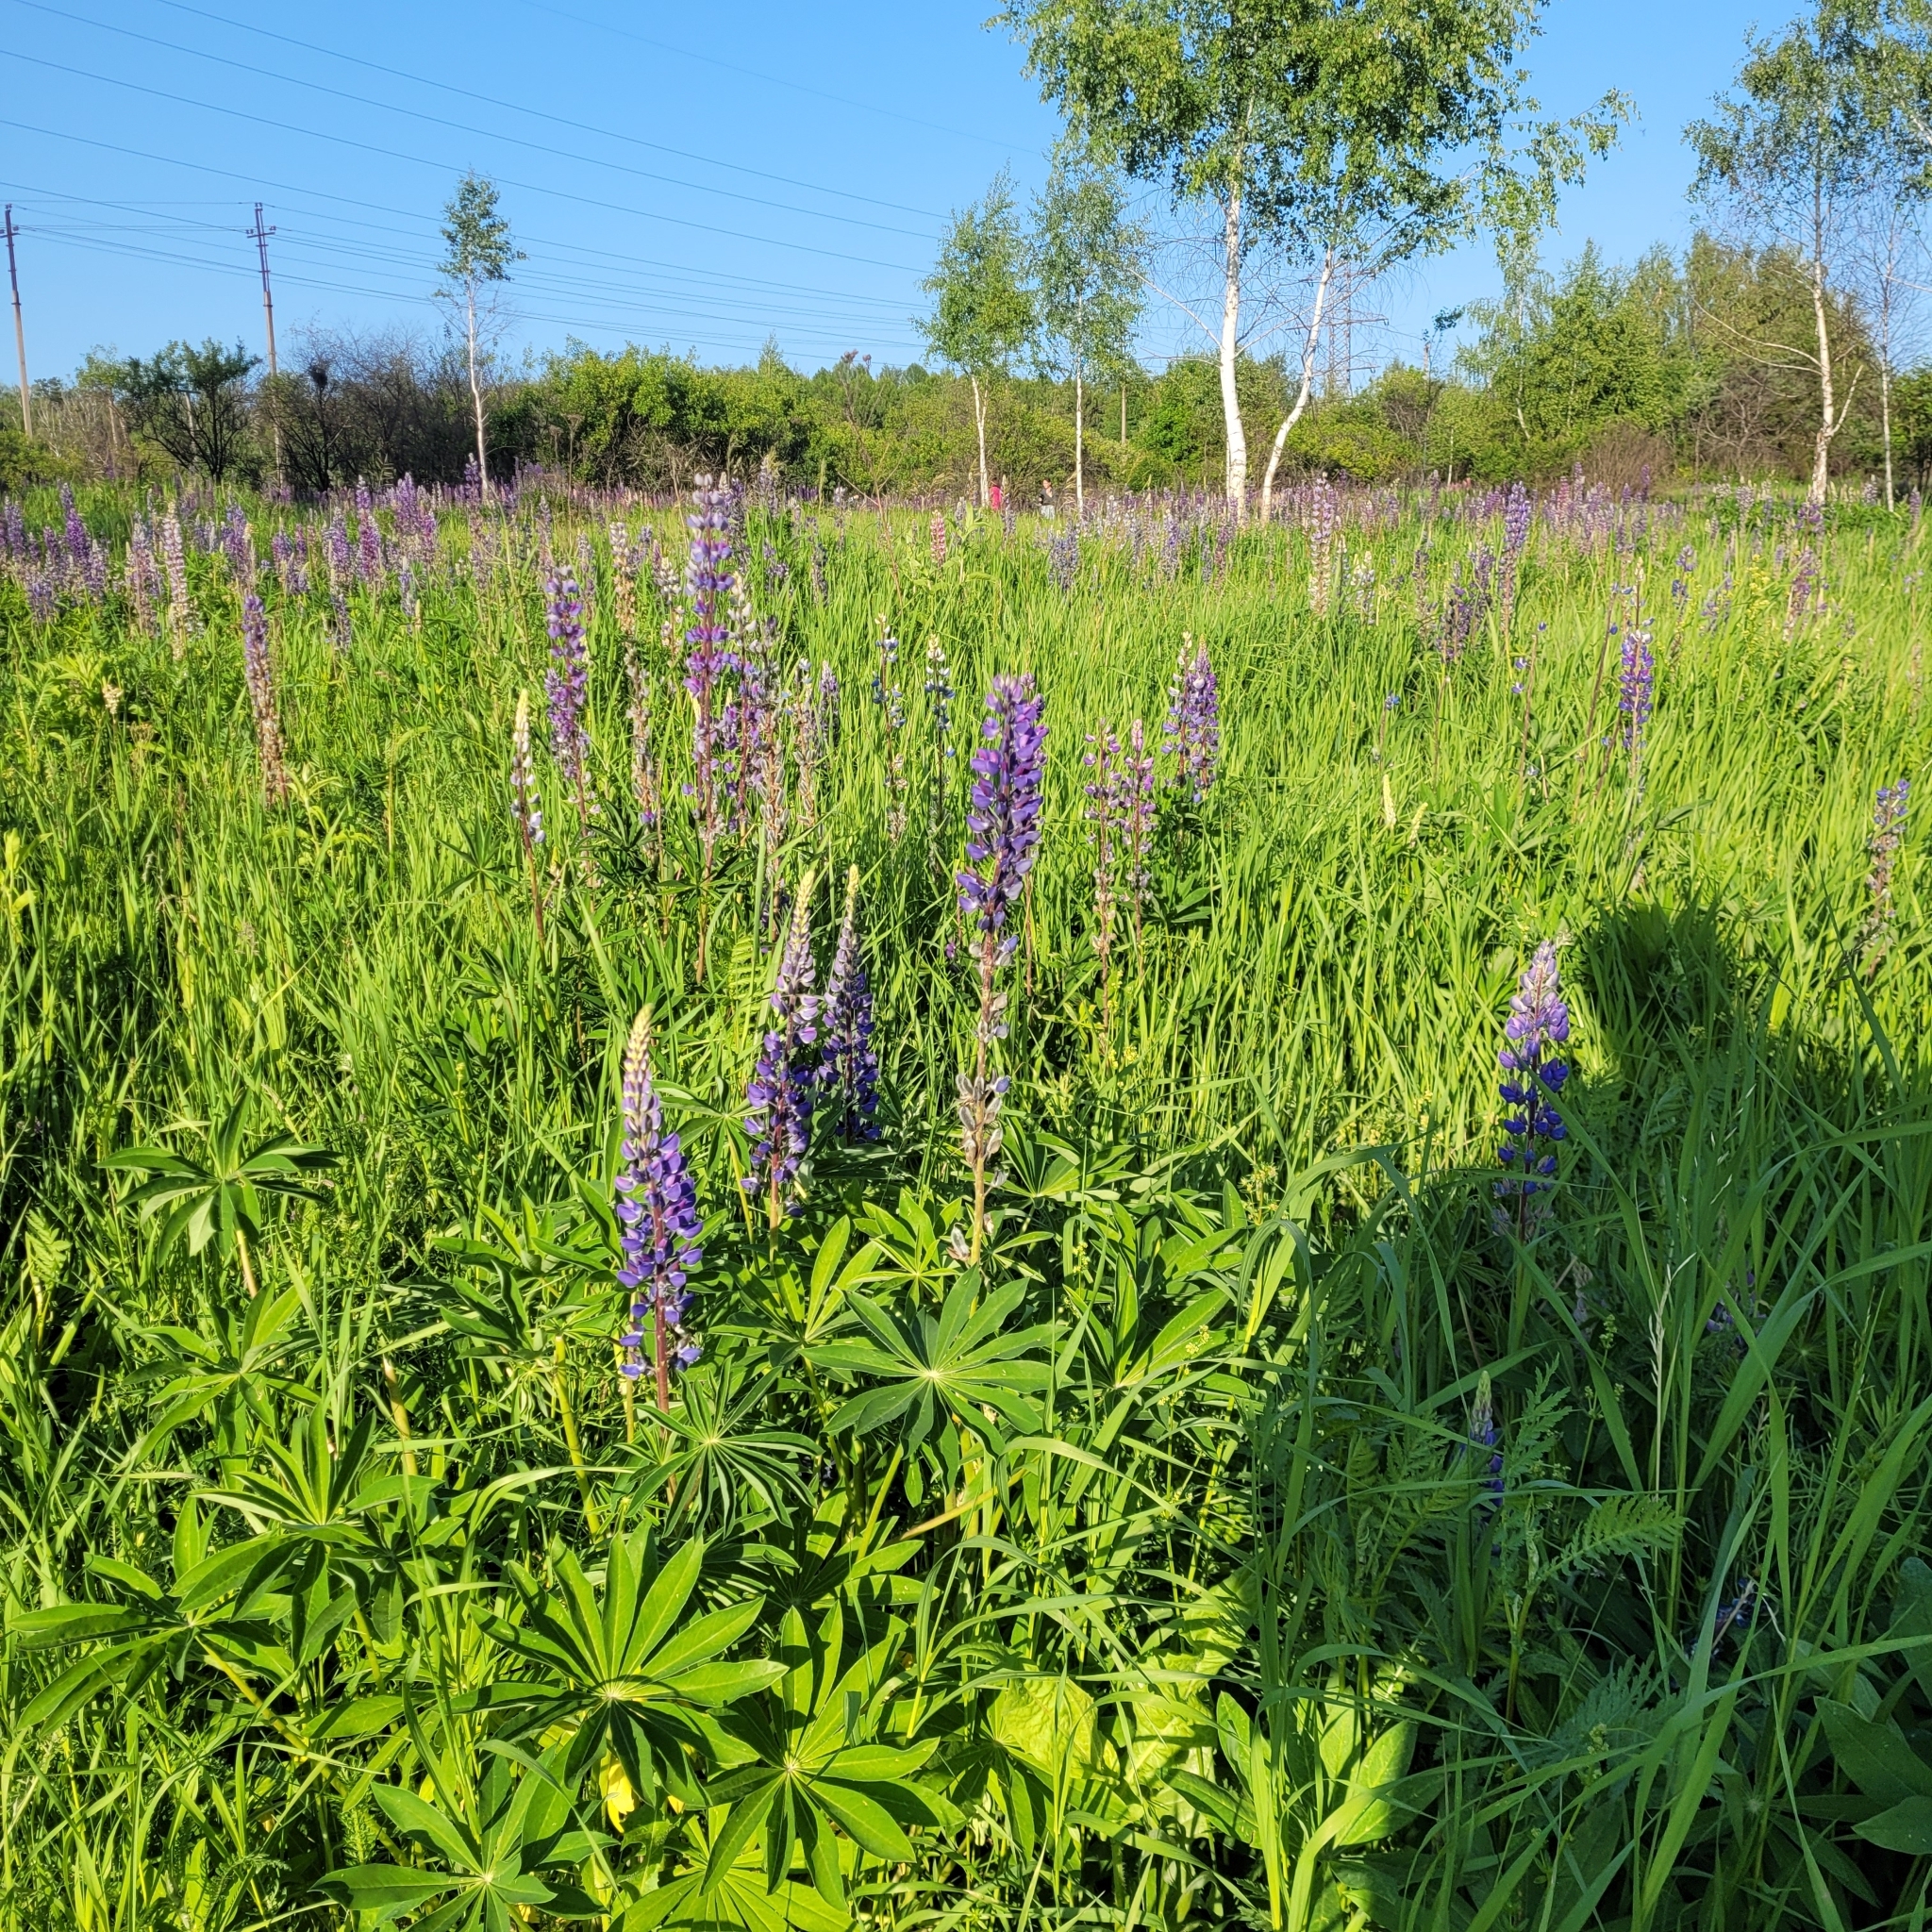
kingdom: Plantae
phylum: Tracheophyta
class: Magnoliopsida
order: Fabales
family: Fabaceae
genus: Lupinus
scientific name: Lupinus polyphyllus
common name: Garden lupin
